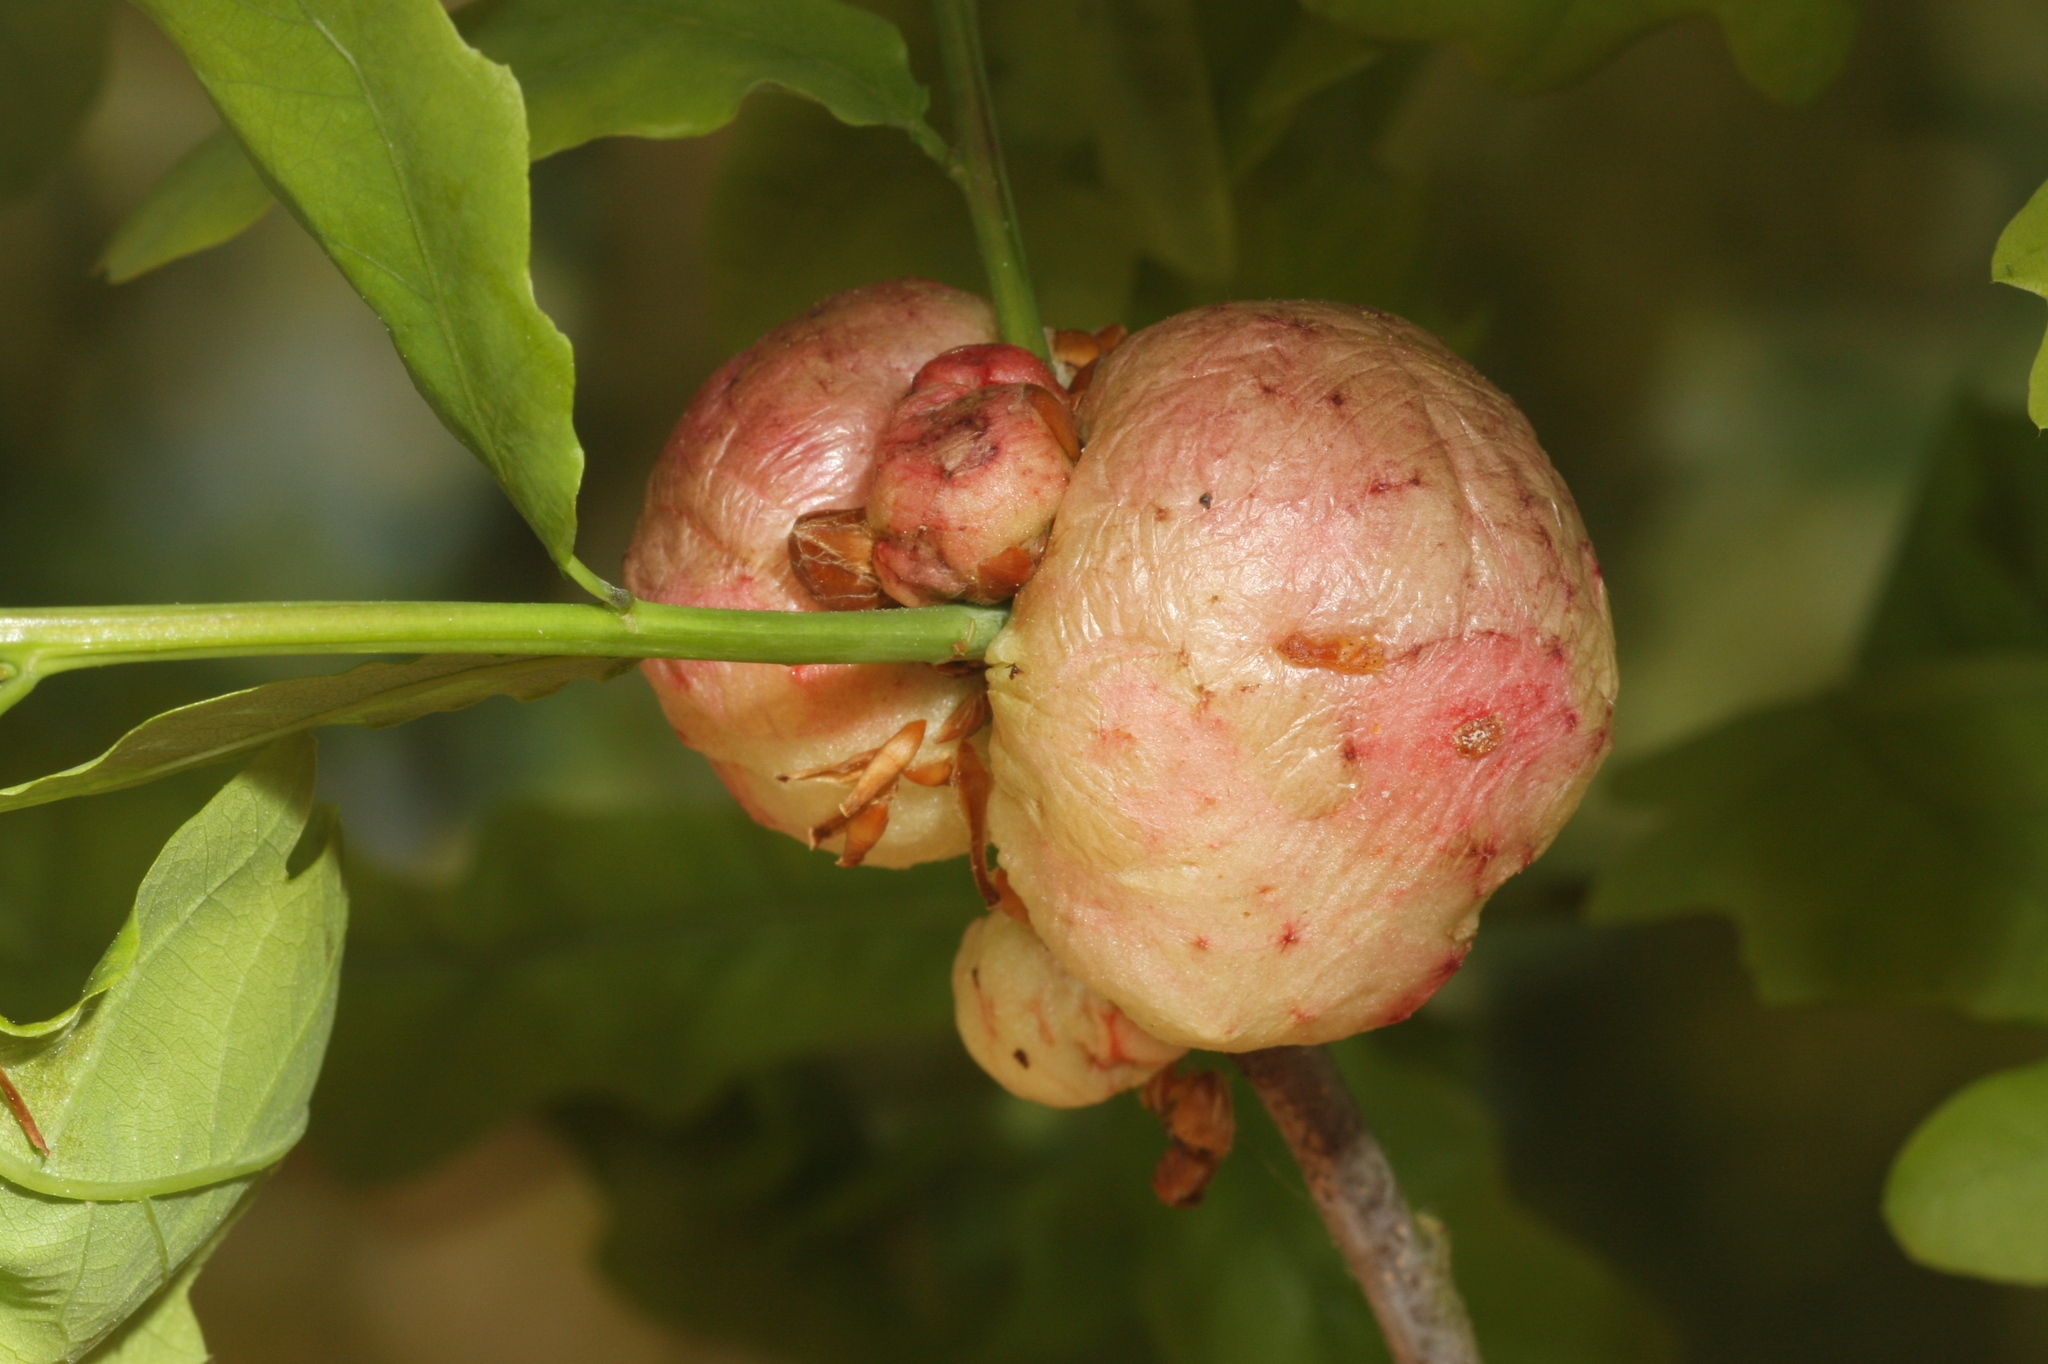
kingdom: Animalia
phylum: Arthropoda
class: Insecta
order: Hymenoptera
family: Cynipidae
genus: Biorhiza
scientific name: Biorhiza pallida
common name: Oak apple
